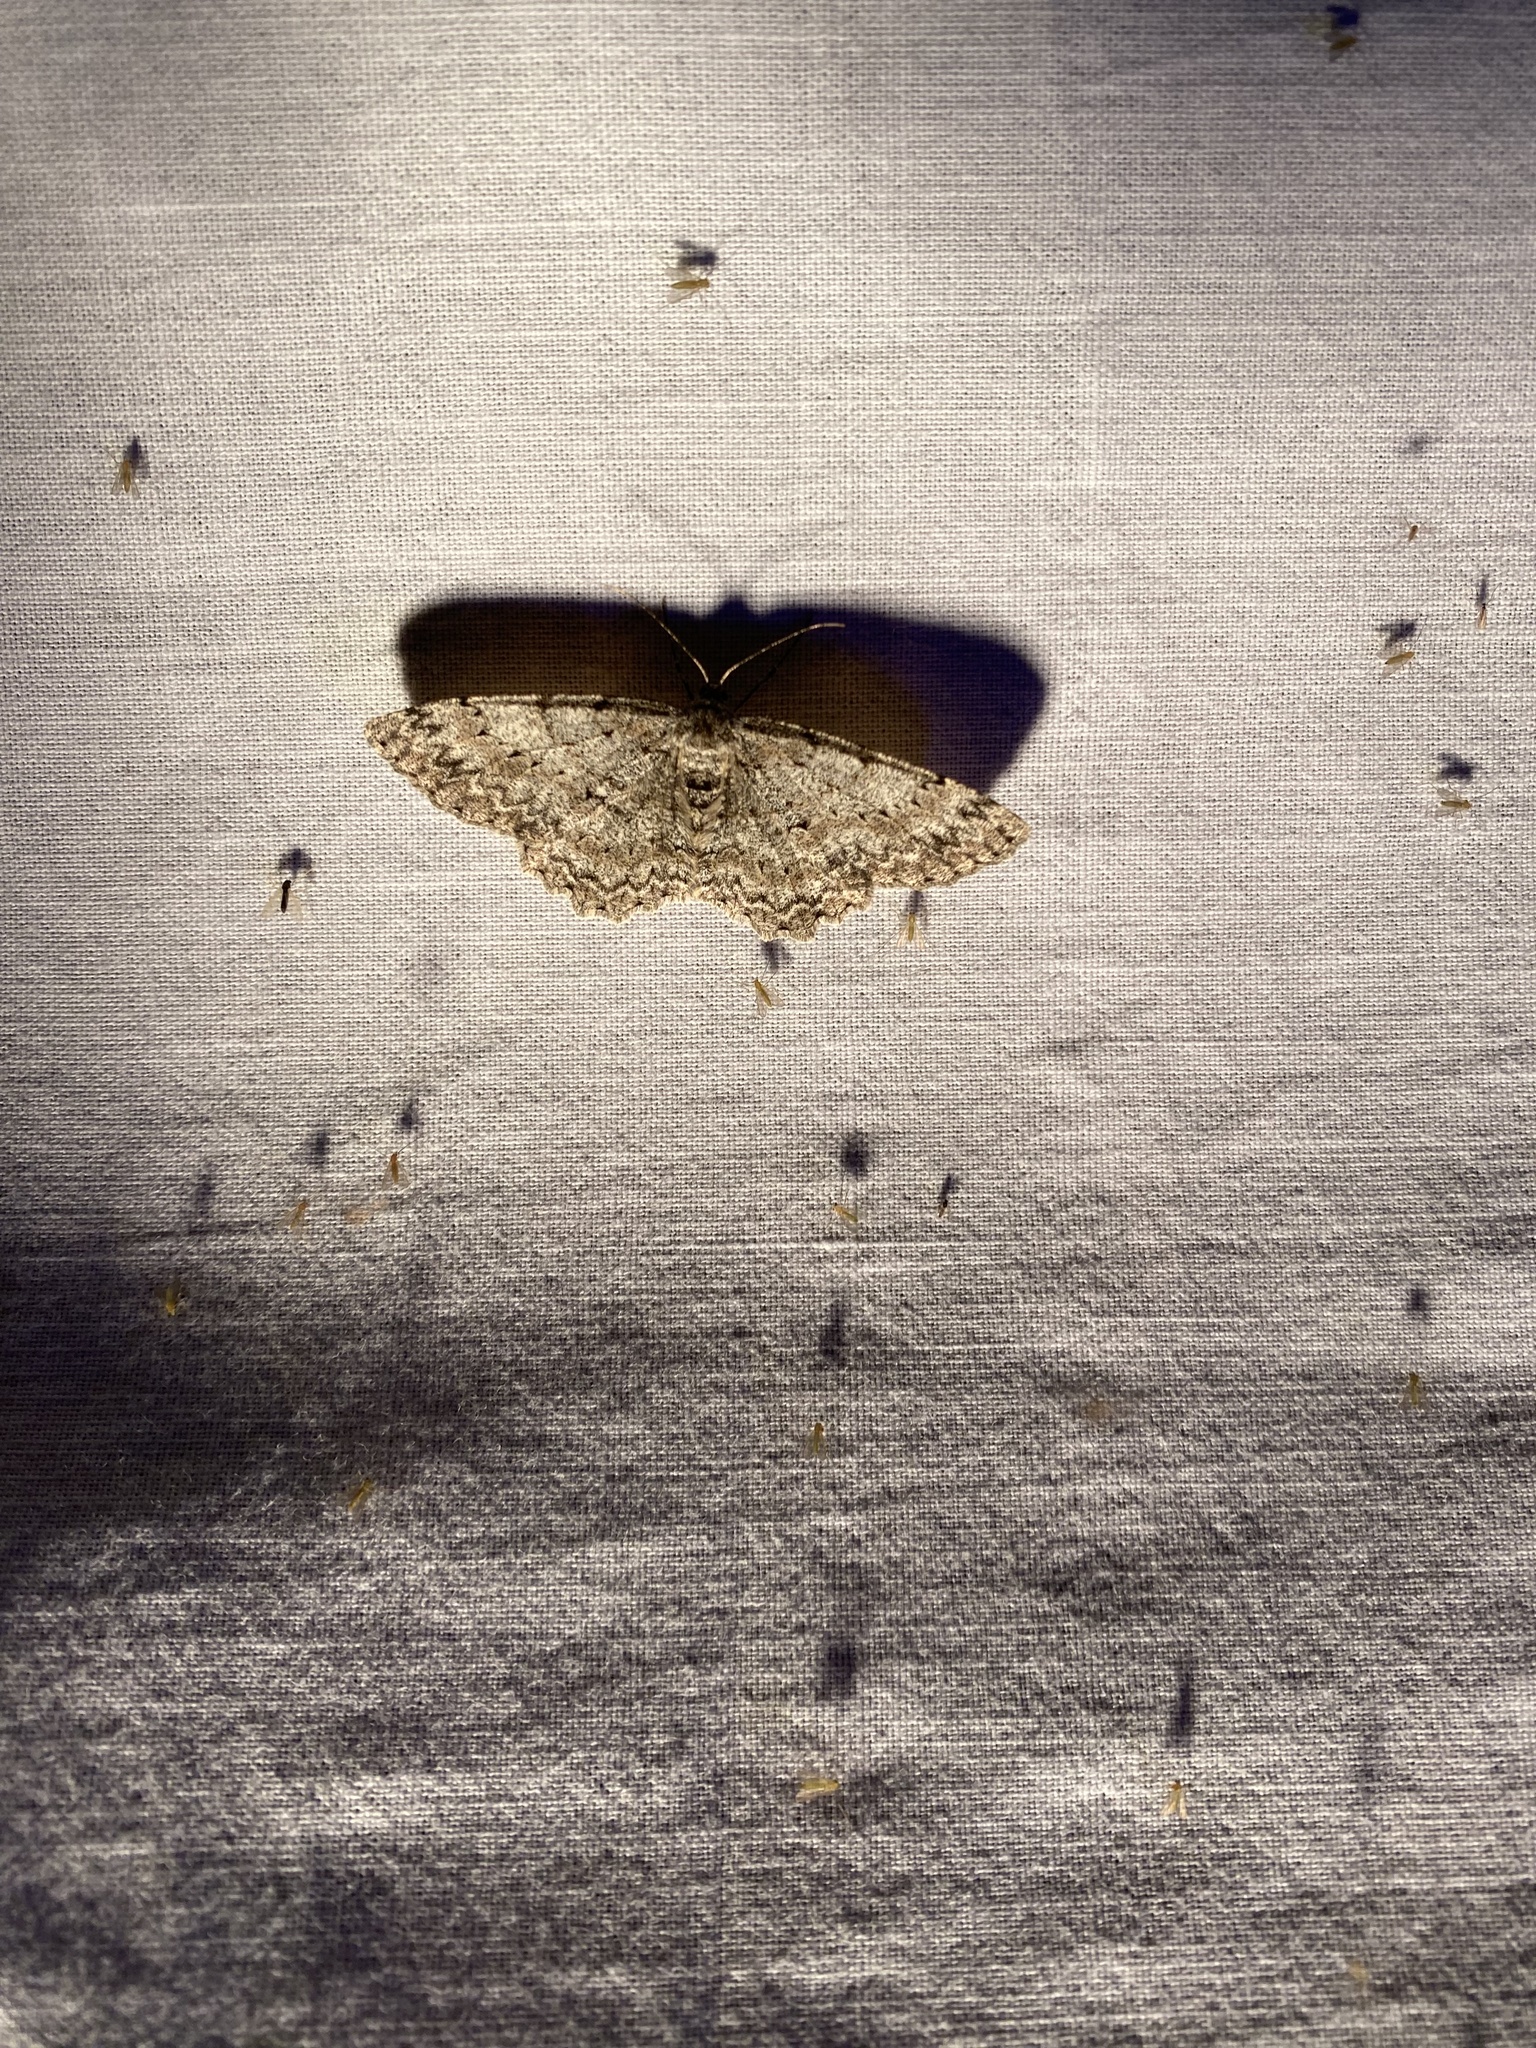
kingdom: Animalia
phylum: Arthropoda
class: Insecta
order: Lepidoptera
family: Geometridae
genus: Hypomecis
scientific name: Hypomecis punctinalis
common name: Pale oak beauty
